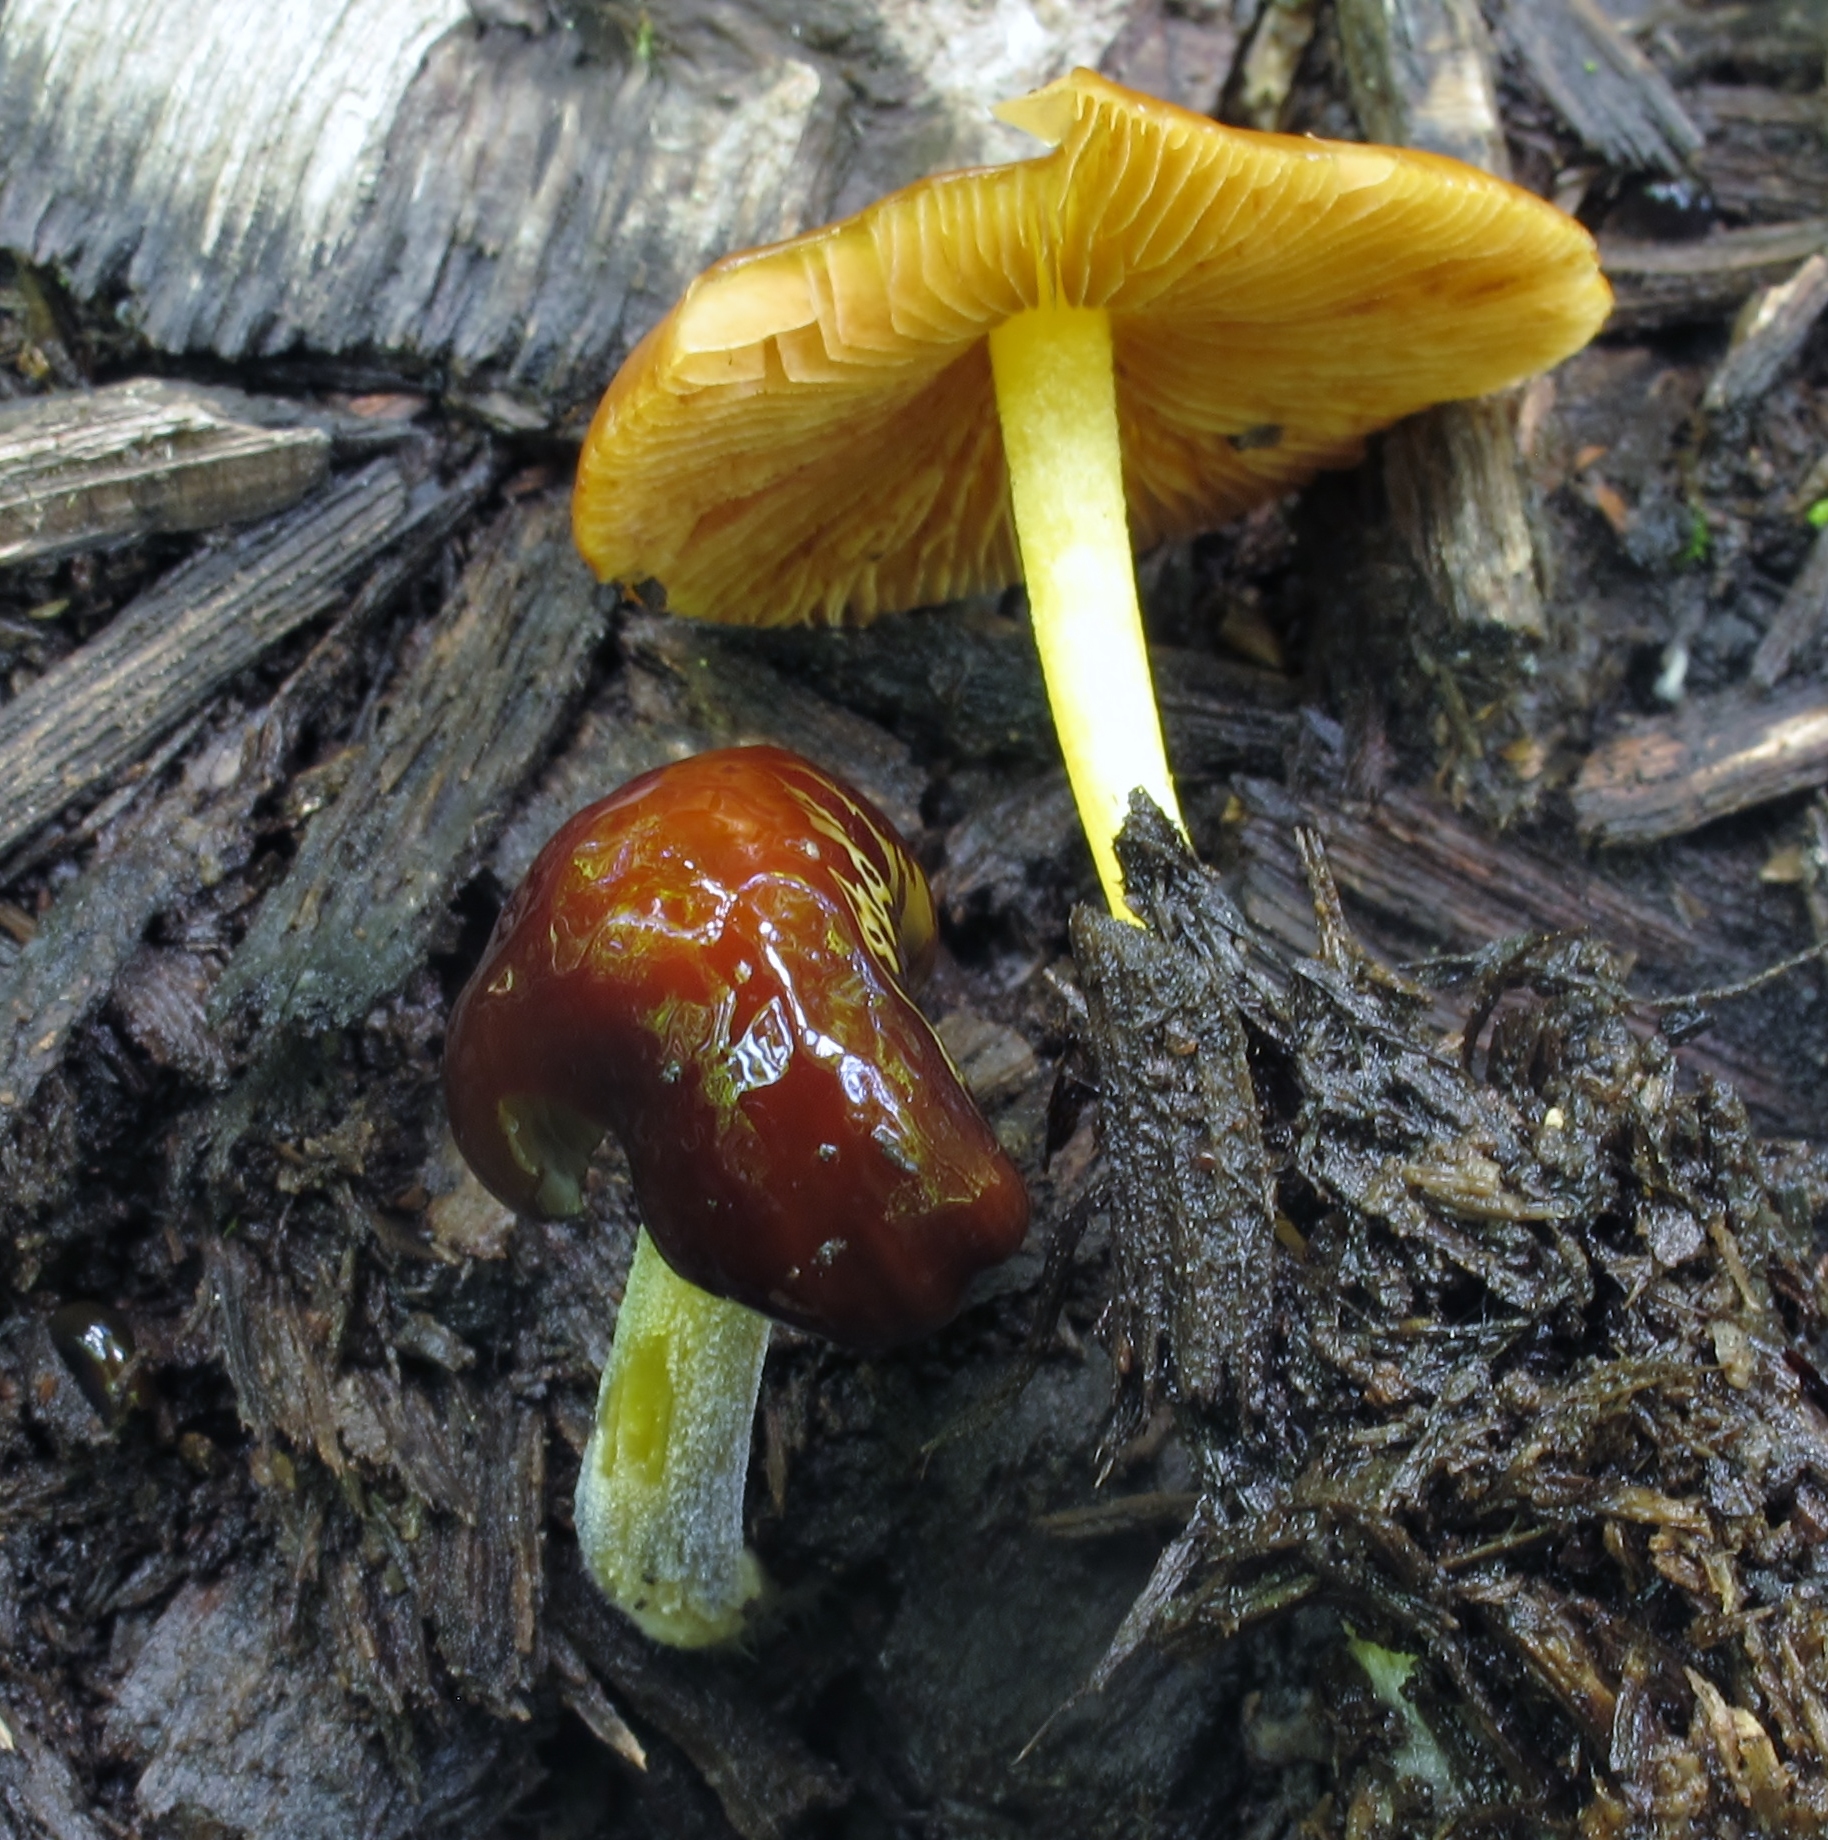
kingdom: Fungi
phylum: Basidiomycota
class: Agaricomycetes
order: Agaricales
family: Bolbitiaceae
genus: Bolbitius
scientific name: Bolbitius callistus
